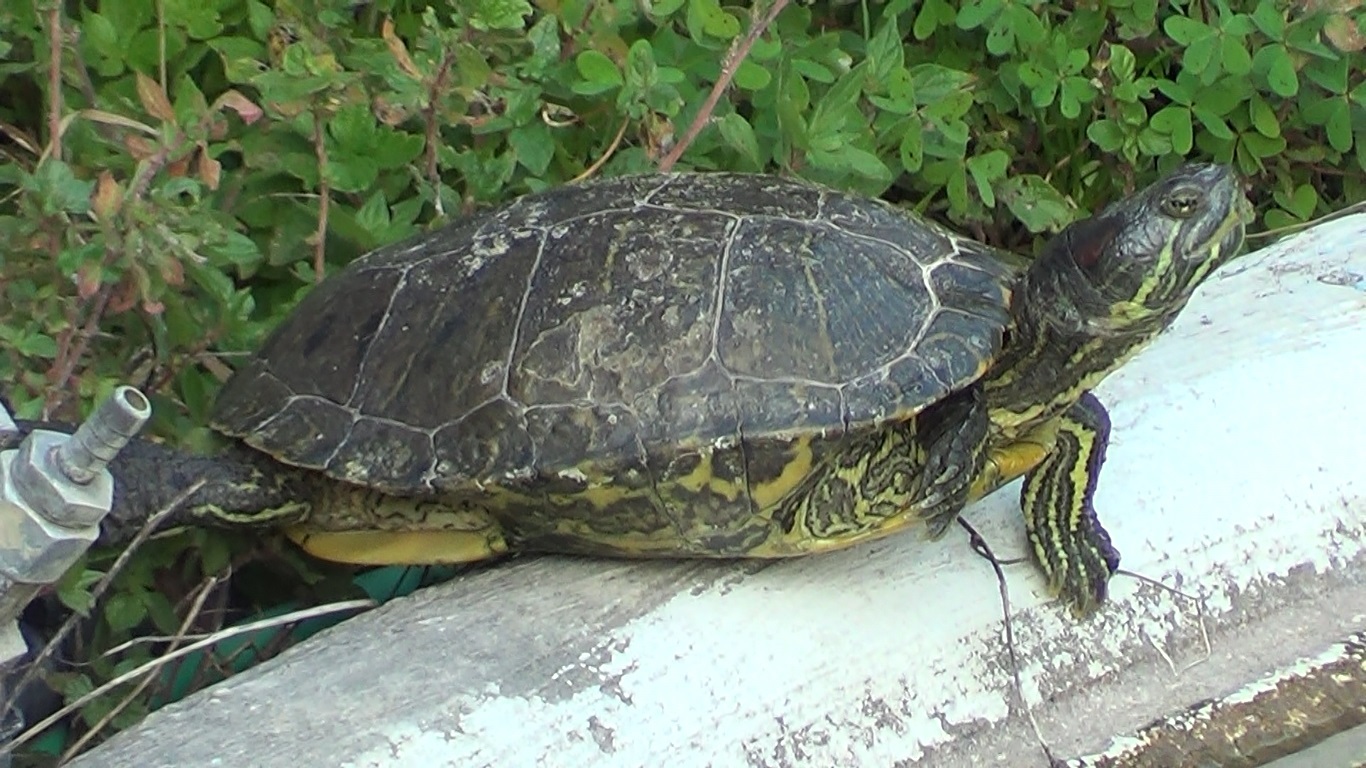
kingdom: Animalia
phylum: Chordata
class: Testudines
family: Emydidae
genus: Trachemys
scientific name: Trachemys scripta
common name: Slider
